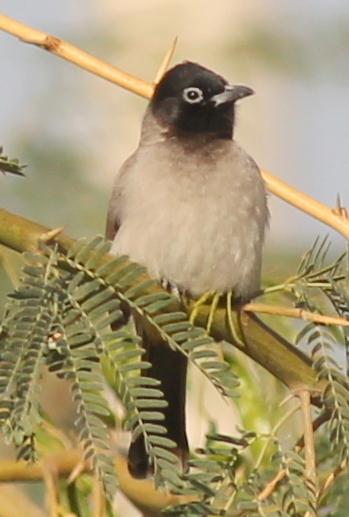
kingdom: Animalia
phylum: Chordata
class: Aves
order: Passeriformes
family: Pycnonotidae
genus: Pycnonotus
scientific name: Pycnonotus xanthopygos
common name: White-spectacled bulbul
